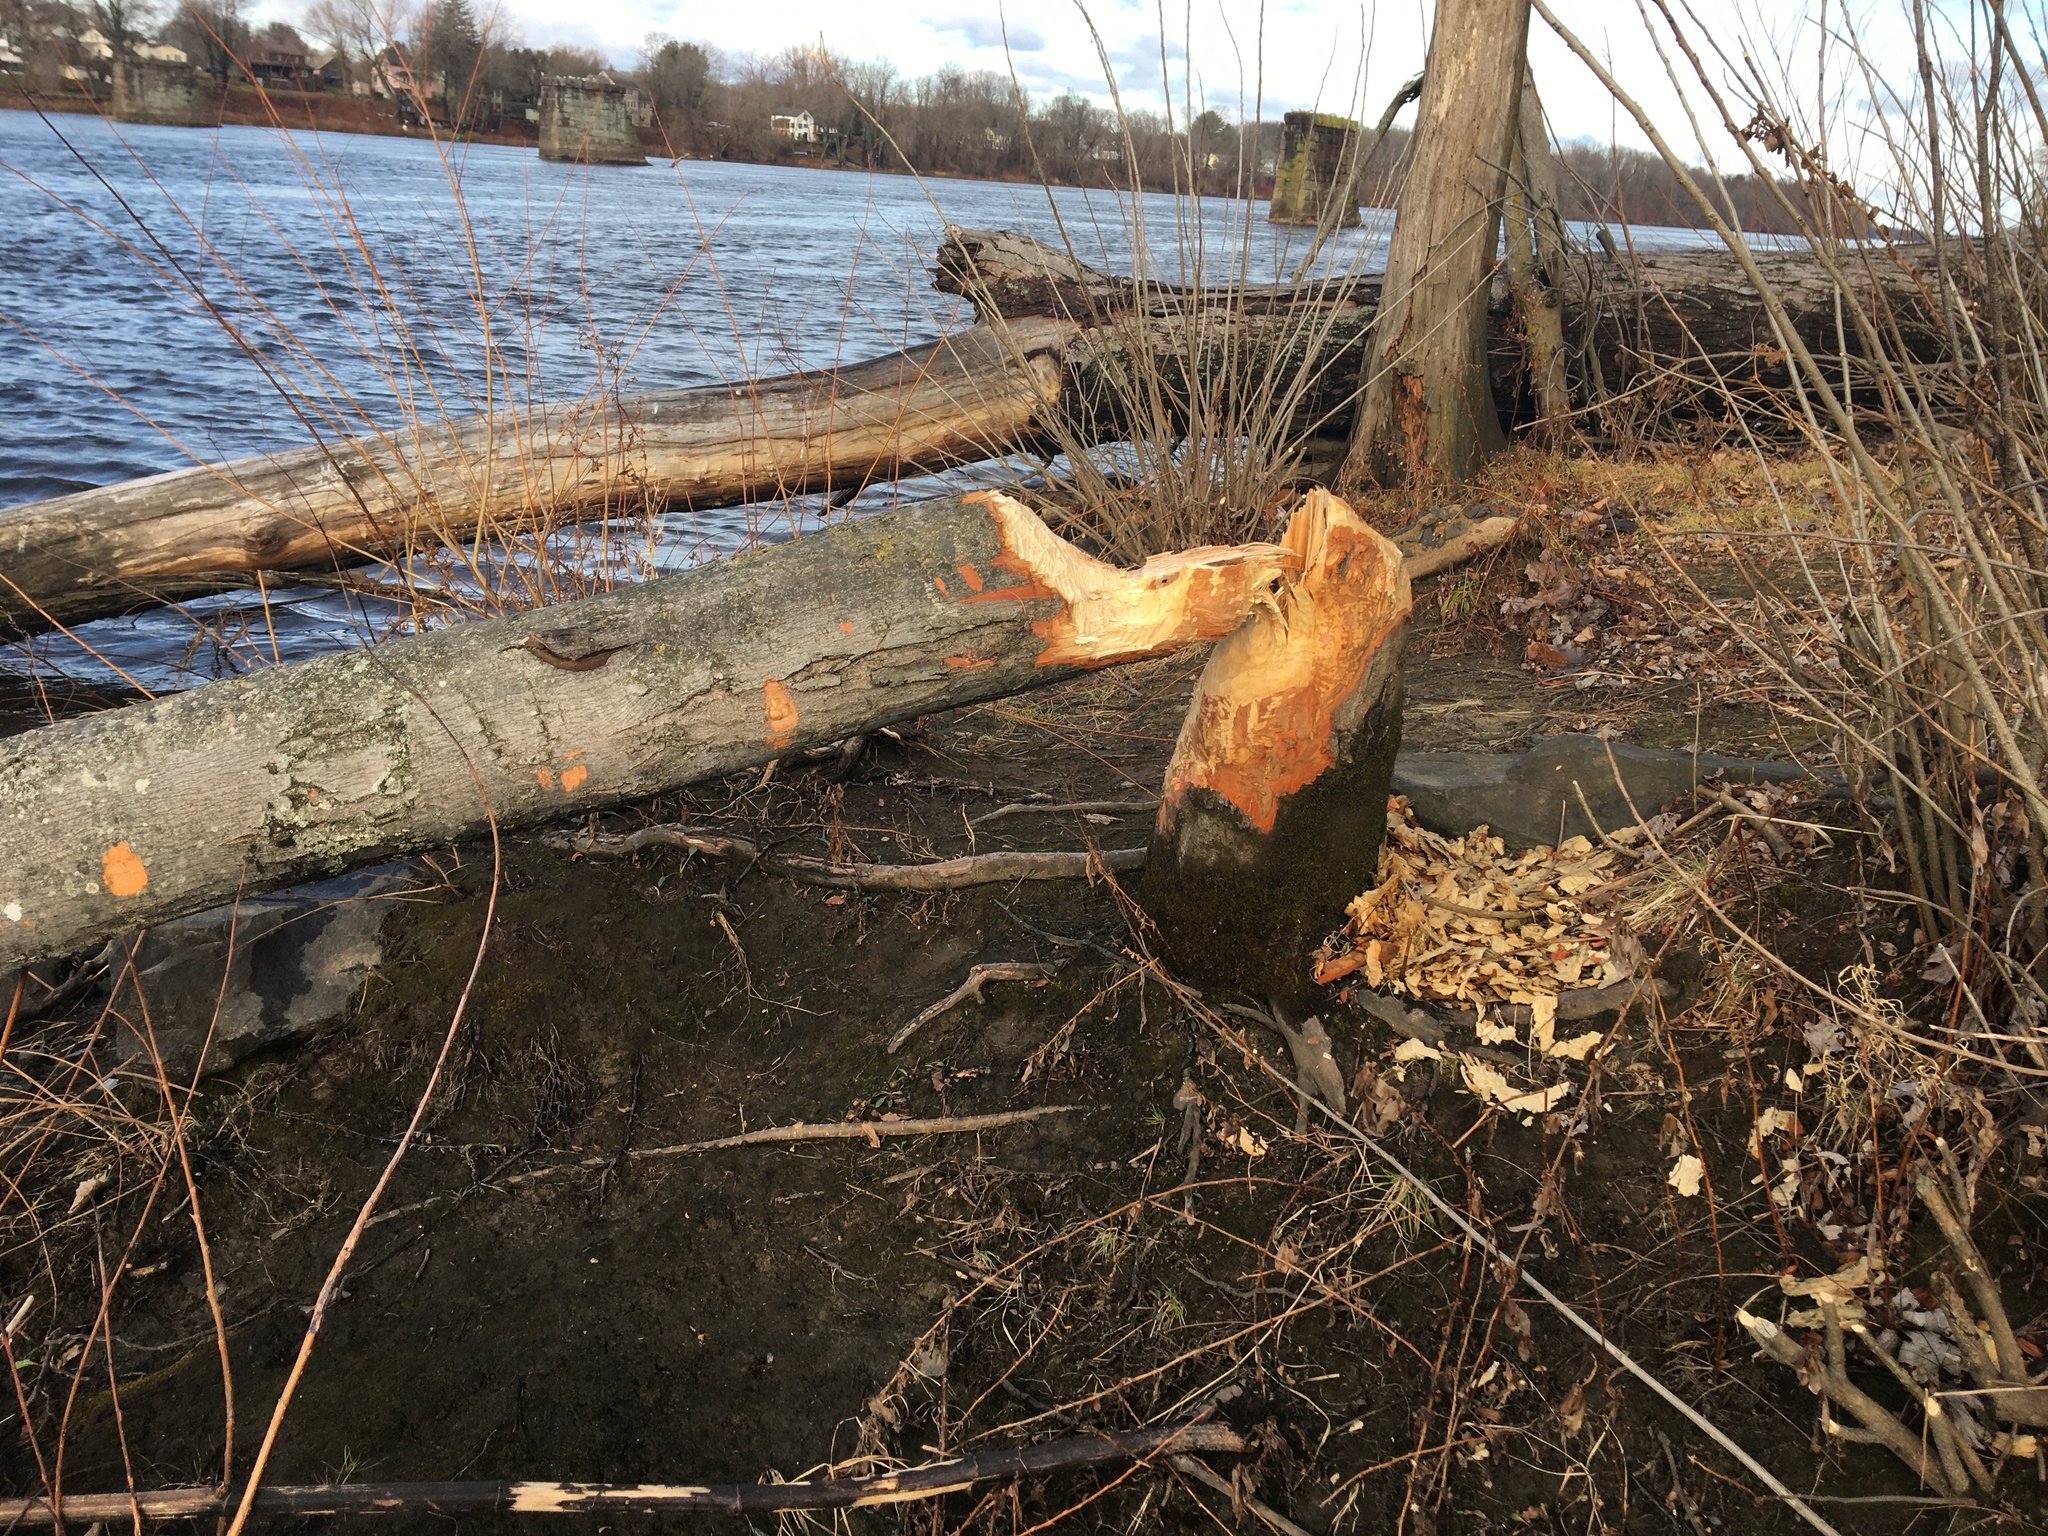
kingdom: Animalia
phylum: Chordata
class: Mammalia
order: Rodentia
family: Castoridae
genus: Castor
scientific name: Castor canadensis
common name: American beaver
